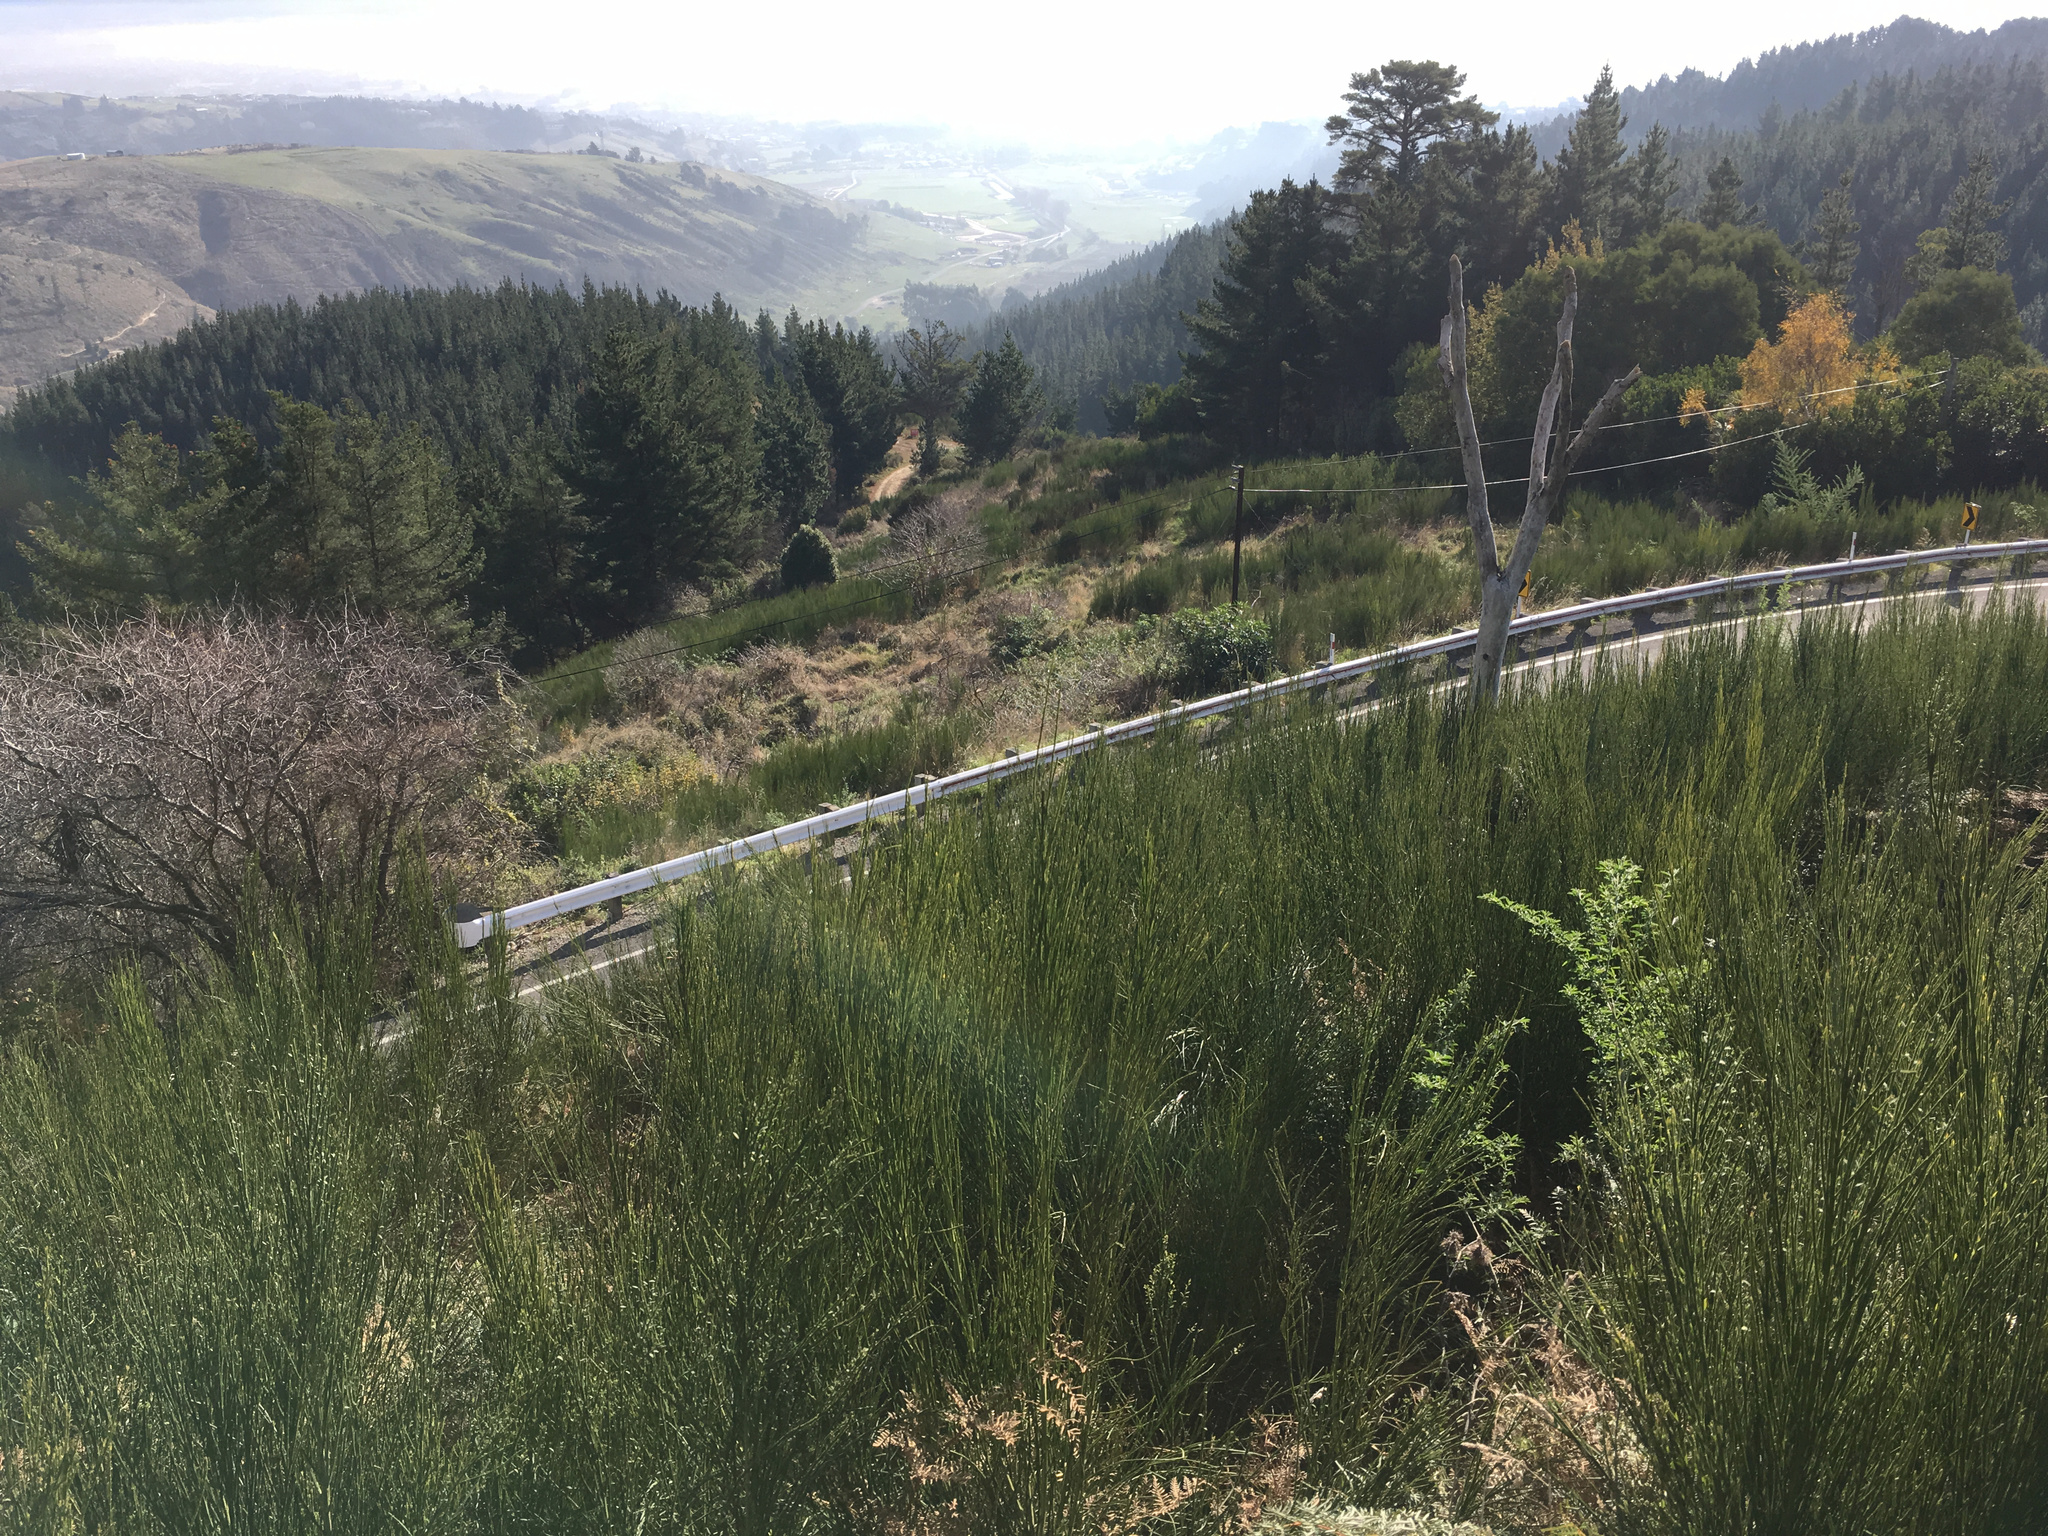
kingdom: Plantae
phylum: Tracheophyta
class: Magnoliopsida
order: Fabales
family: Fabaceae
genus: Cytisus
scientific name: Cytisus scoparius
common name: Scotch broom
